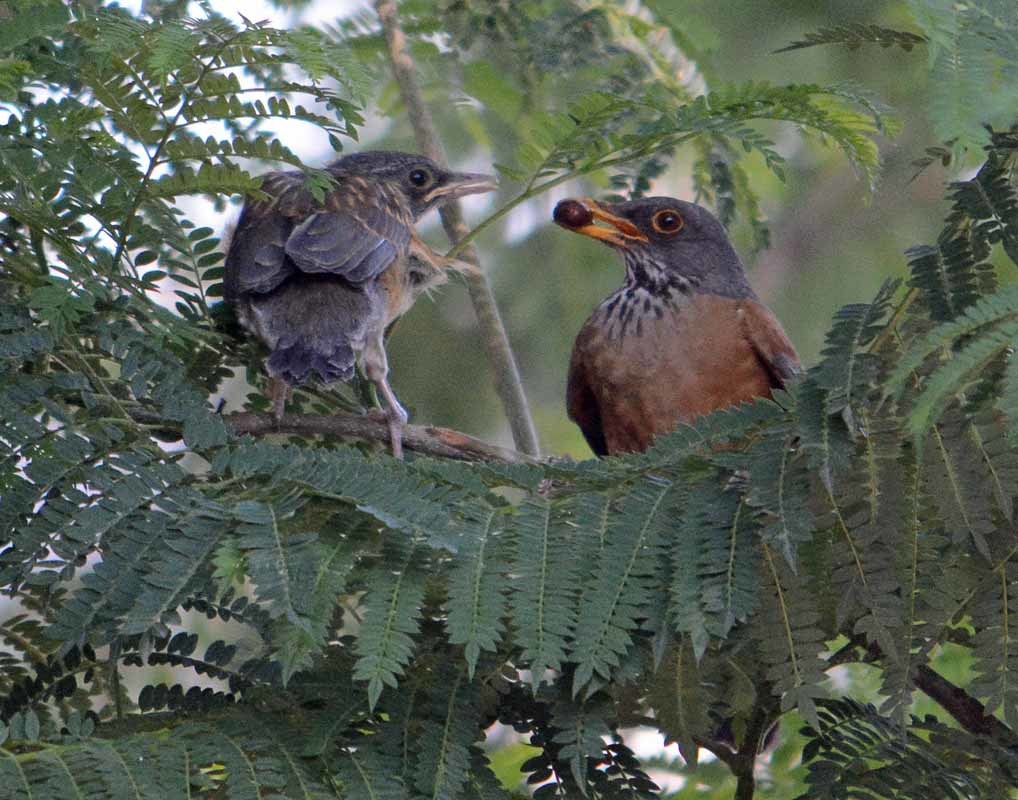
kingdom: Animalia
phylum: Chordata
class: Aves
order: Passeriformes
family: Turdidae
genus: Turdus
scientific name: Turdus rufopalliatus
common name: Rufous-backed robin
